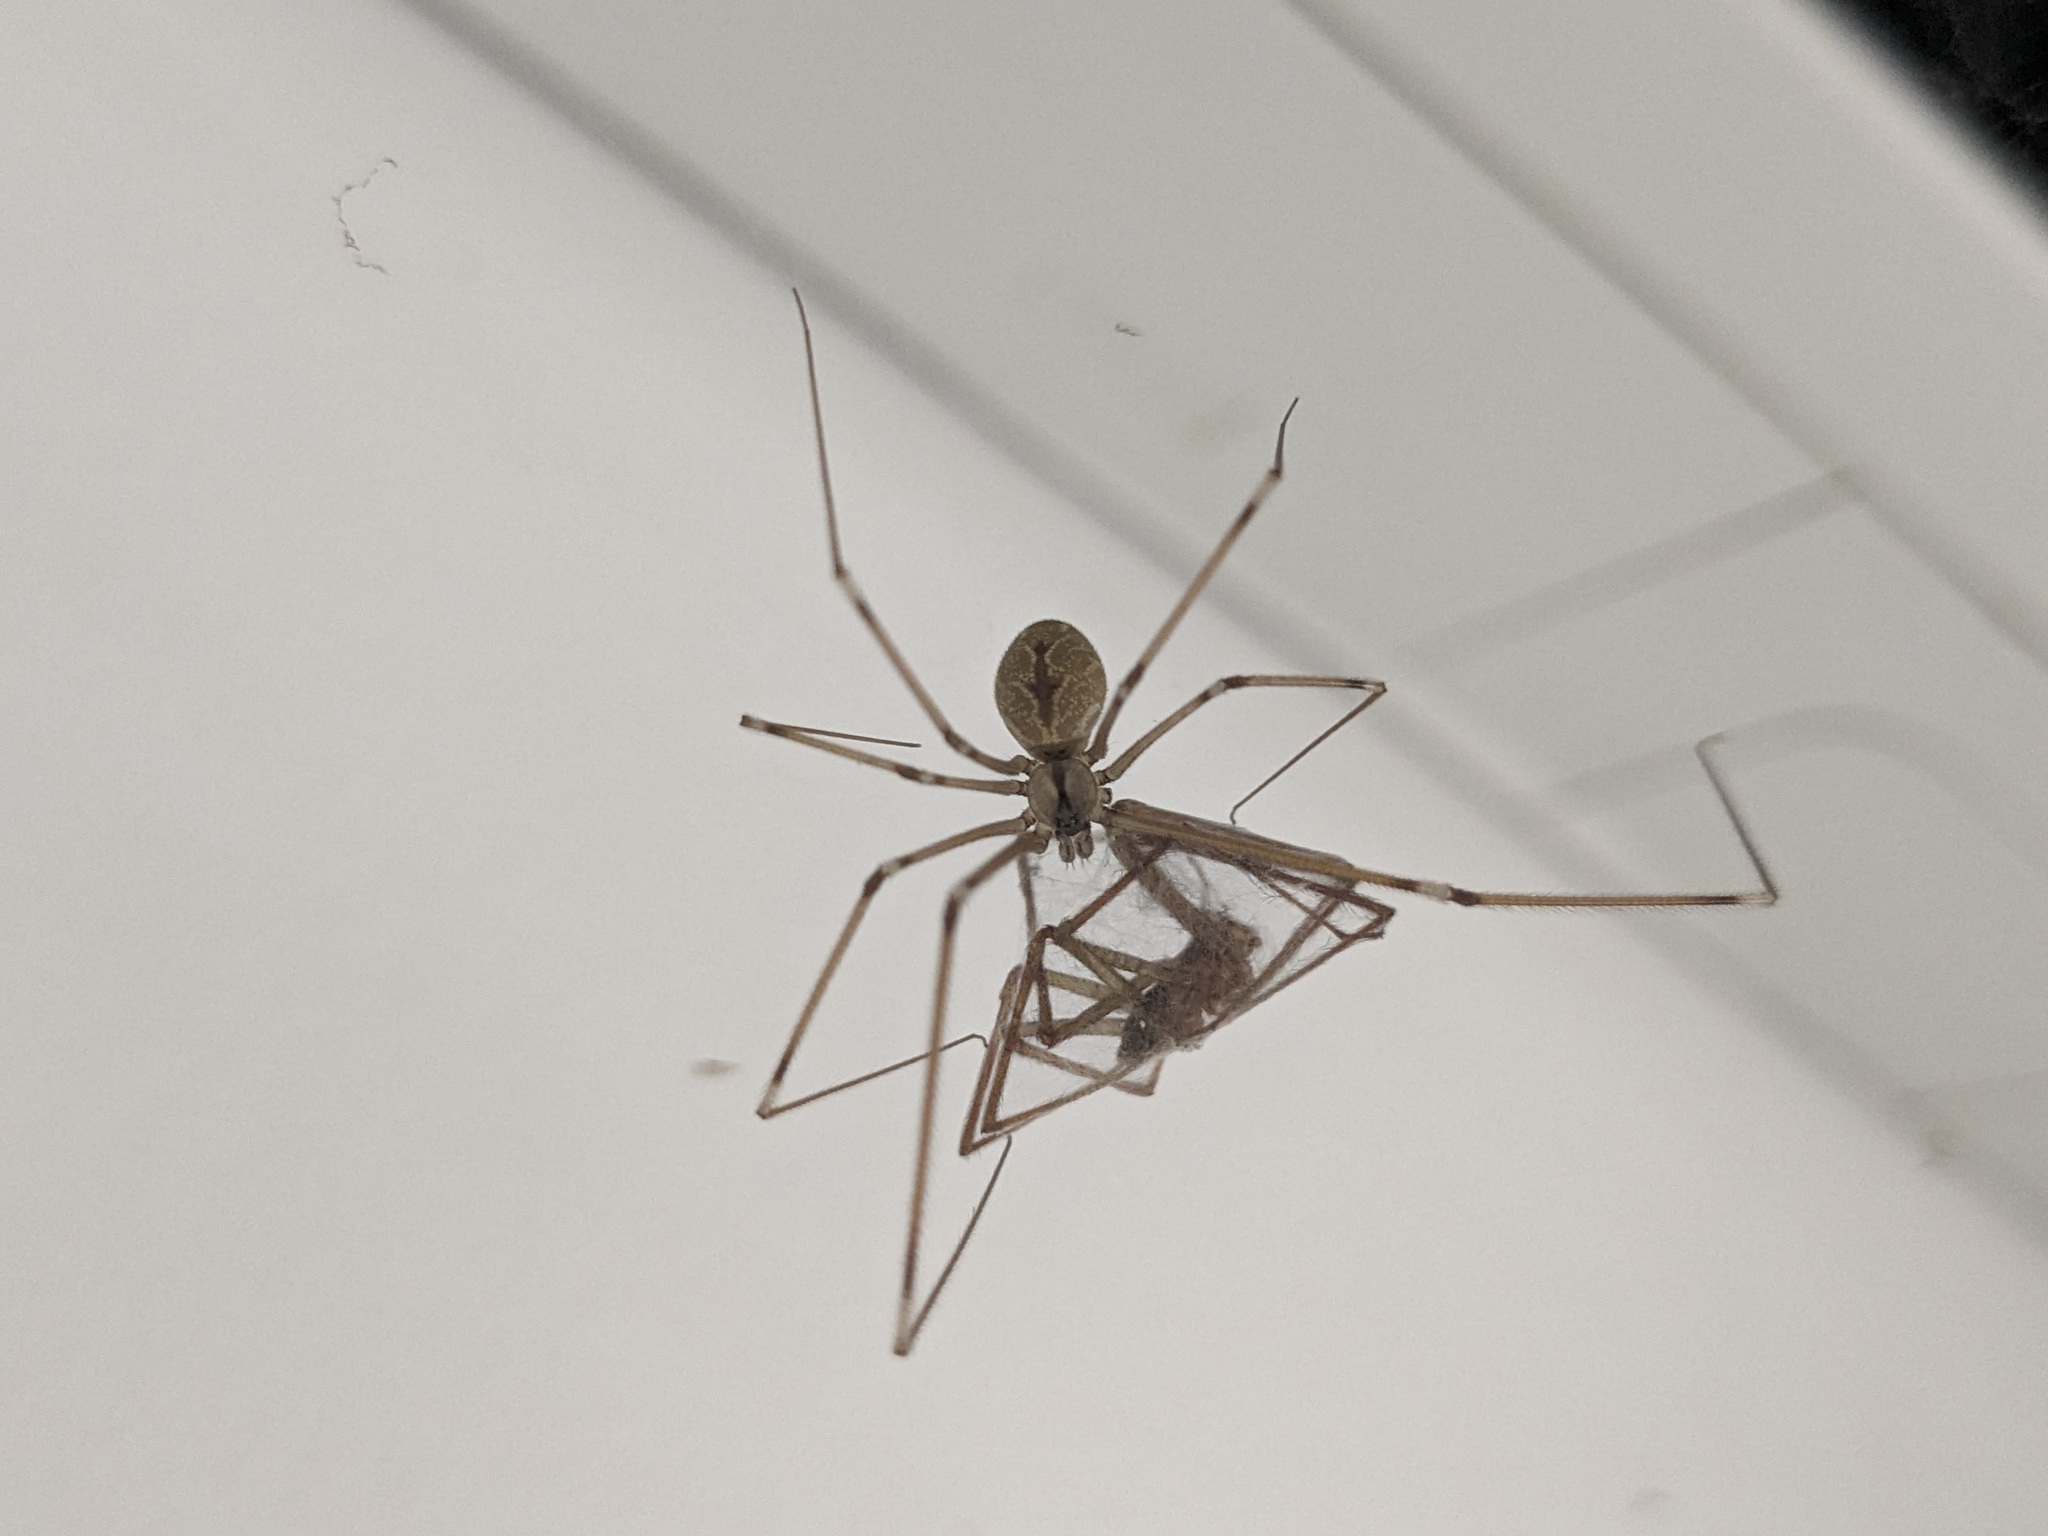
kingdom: Animalia
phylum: Arthropoda
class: Arachnida
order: Araneae
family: Pholcidae
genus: Holocnemus
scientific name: Holocnemus pluchei
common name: Marbled cellar spider
